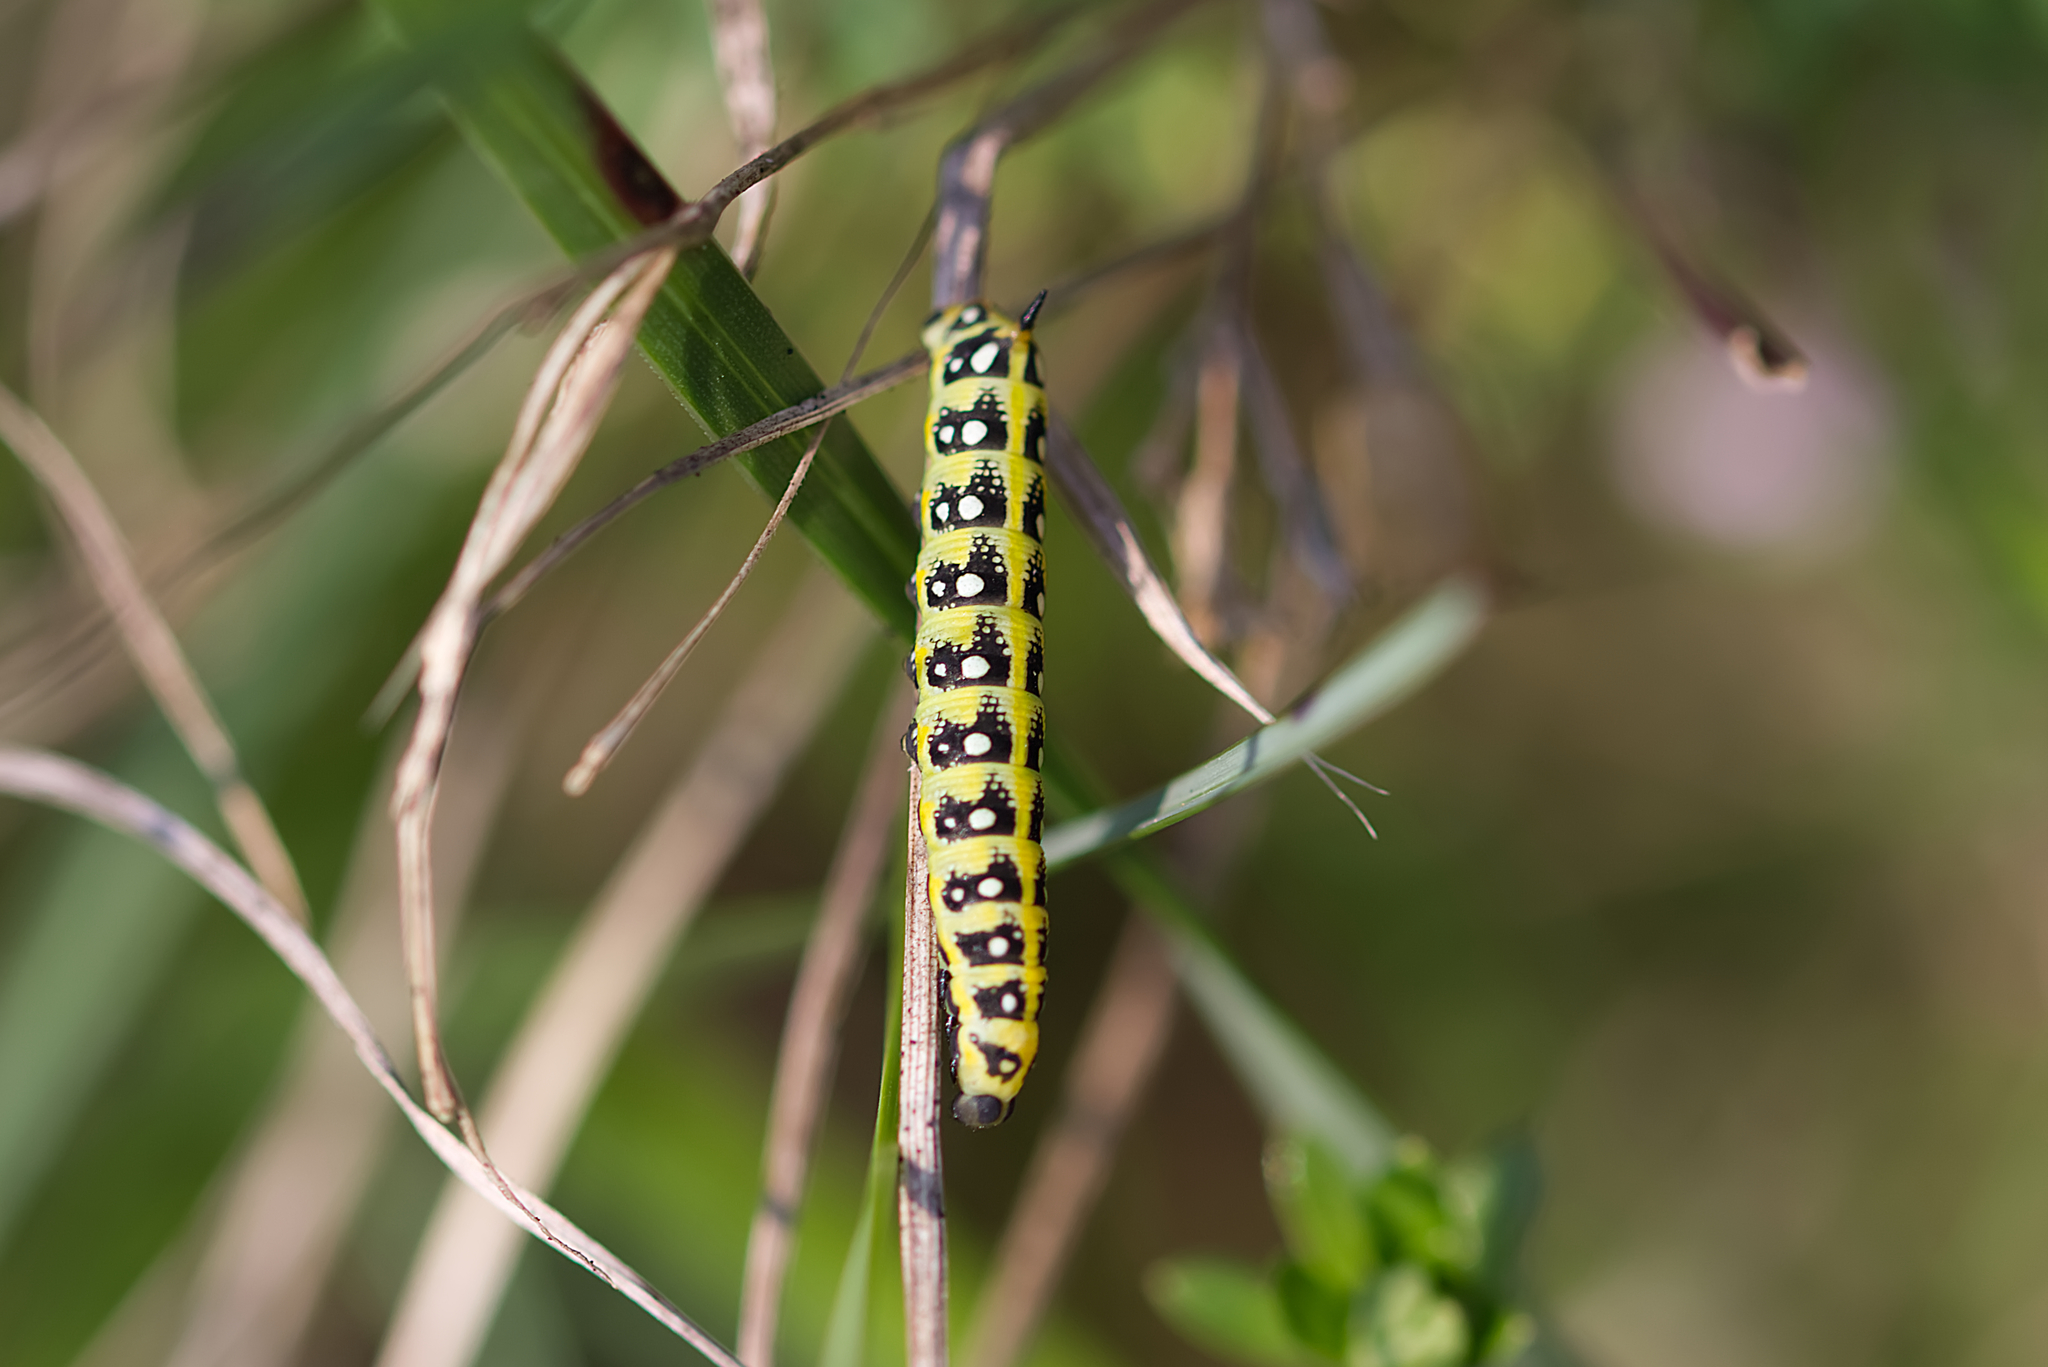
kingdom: Animalia
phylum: Arthropoda
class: Insecta
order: Lepidoptera
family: Sphingidae
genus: Hyles
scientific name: Hyles euphorbiae
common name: Spurge hawk-moth
